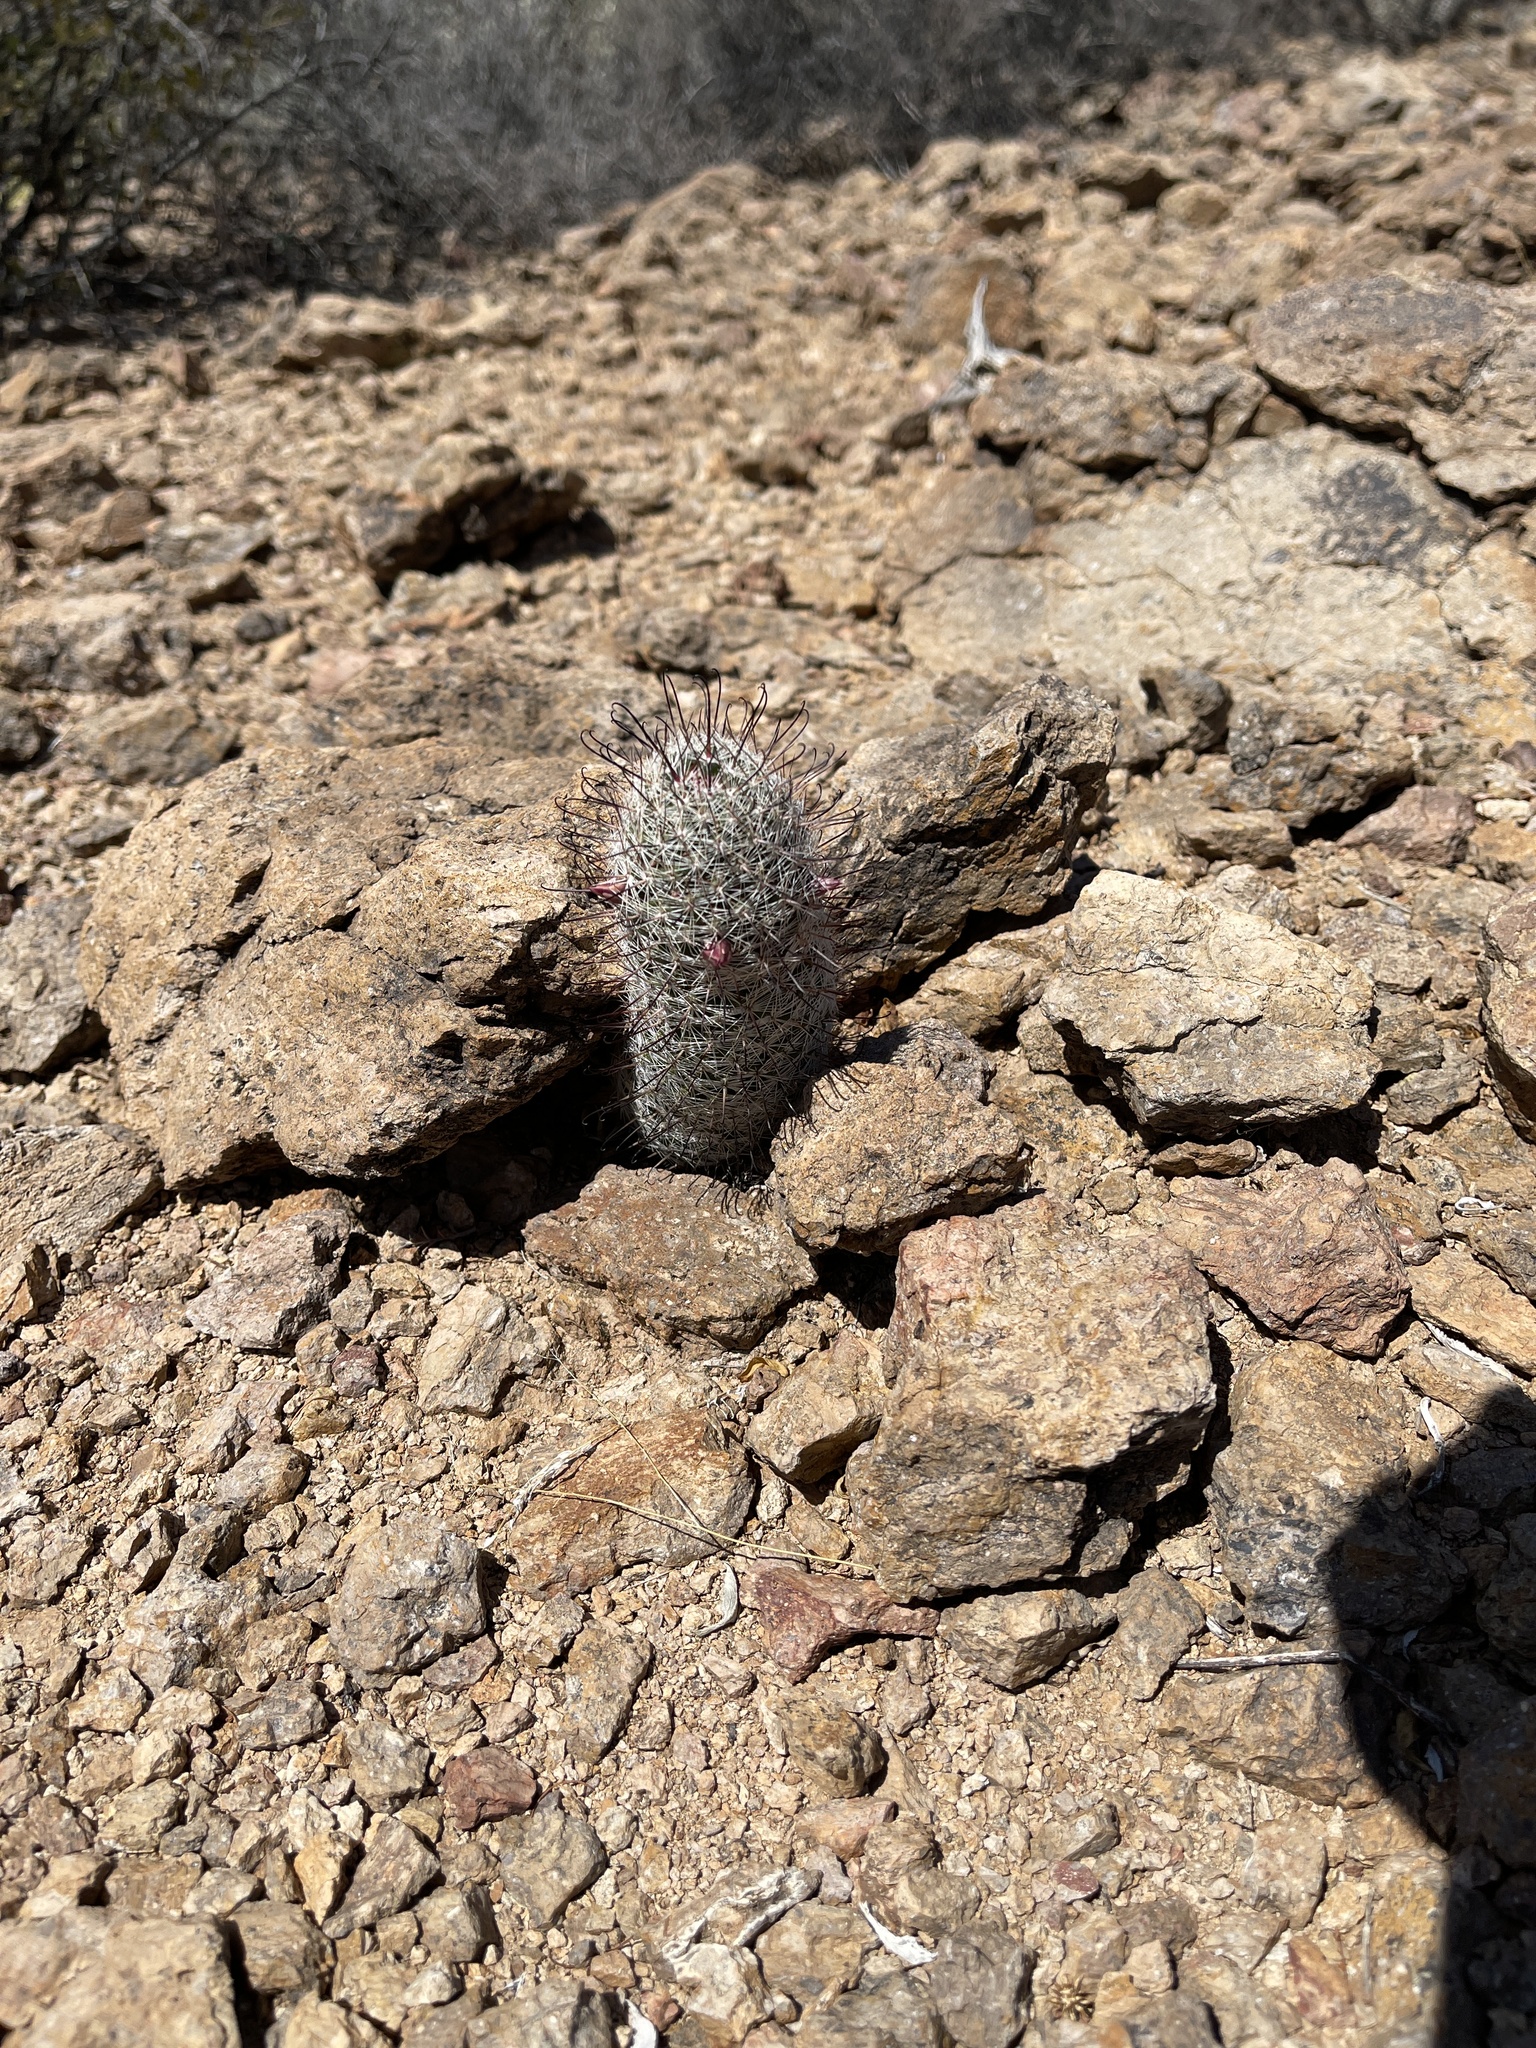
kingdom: Plantae
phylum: Tracheophyta
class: Magnoliopsida
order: Caryophyllales
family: Cactaceae
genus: Cochemiea
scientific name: Cochemiea grahamii
